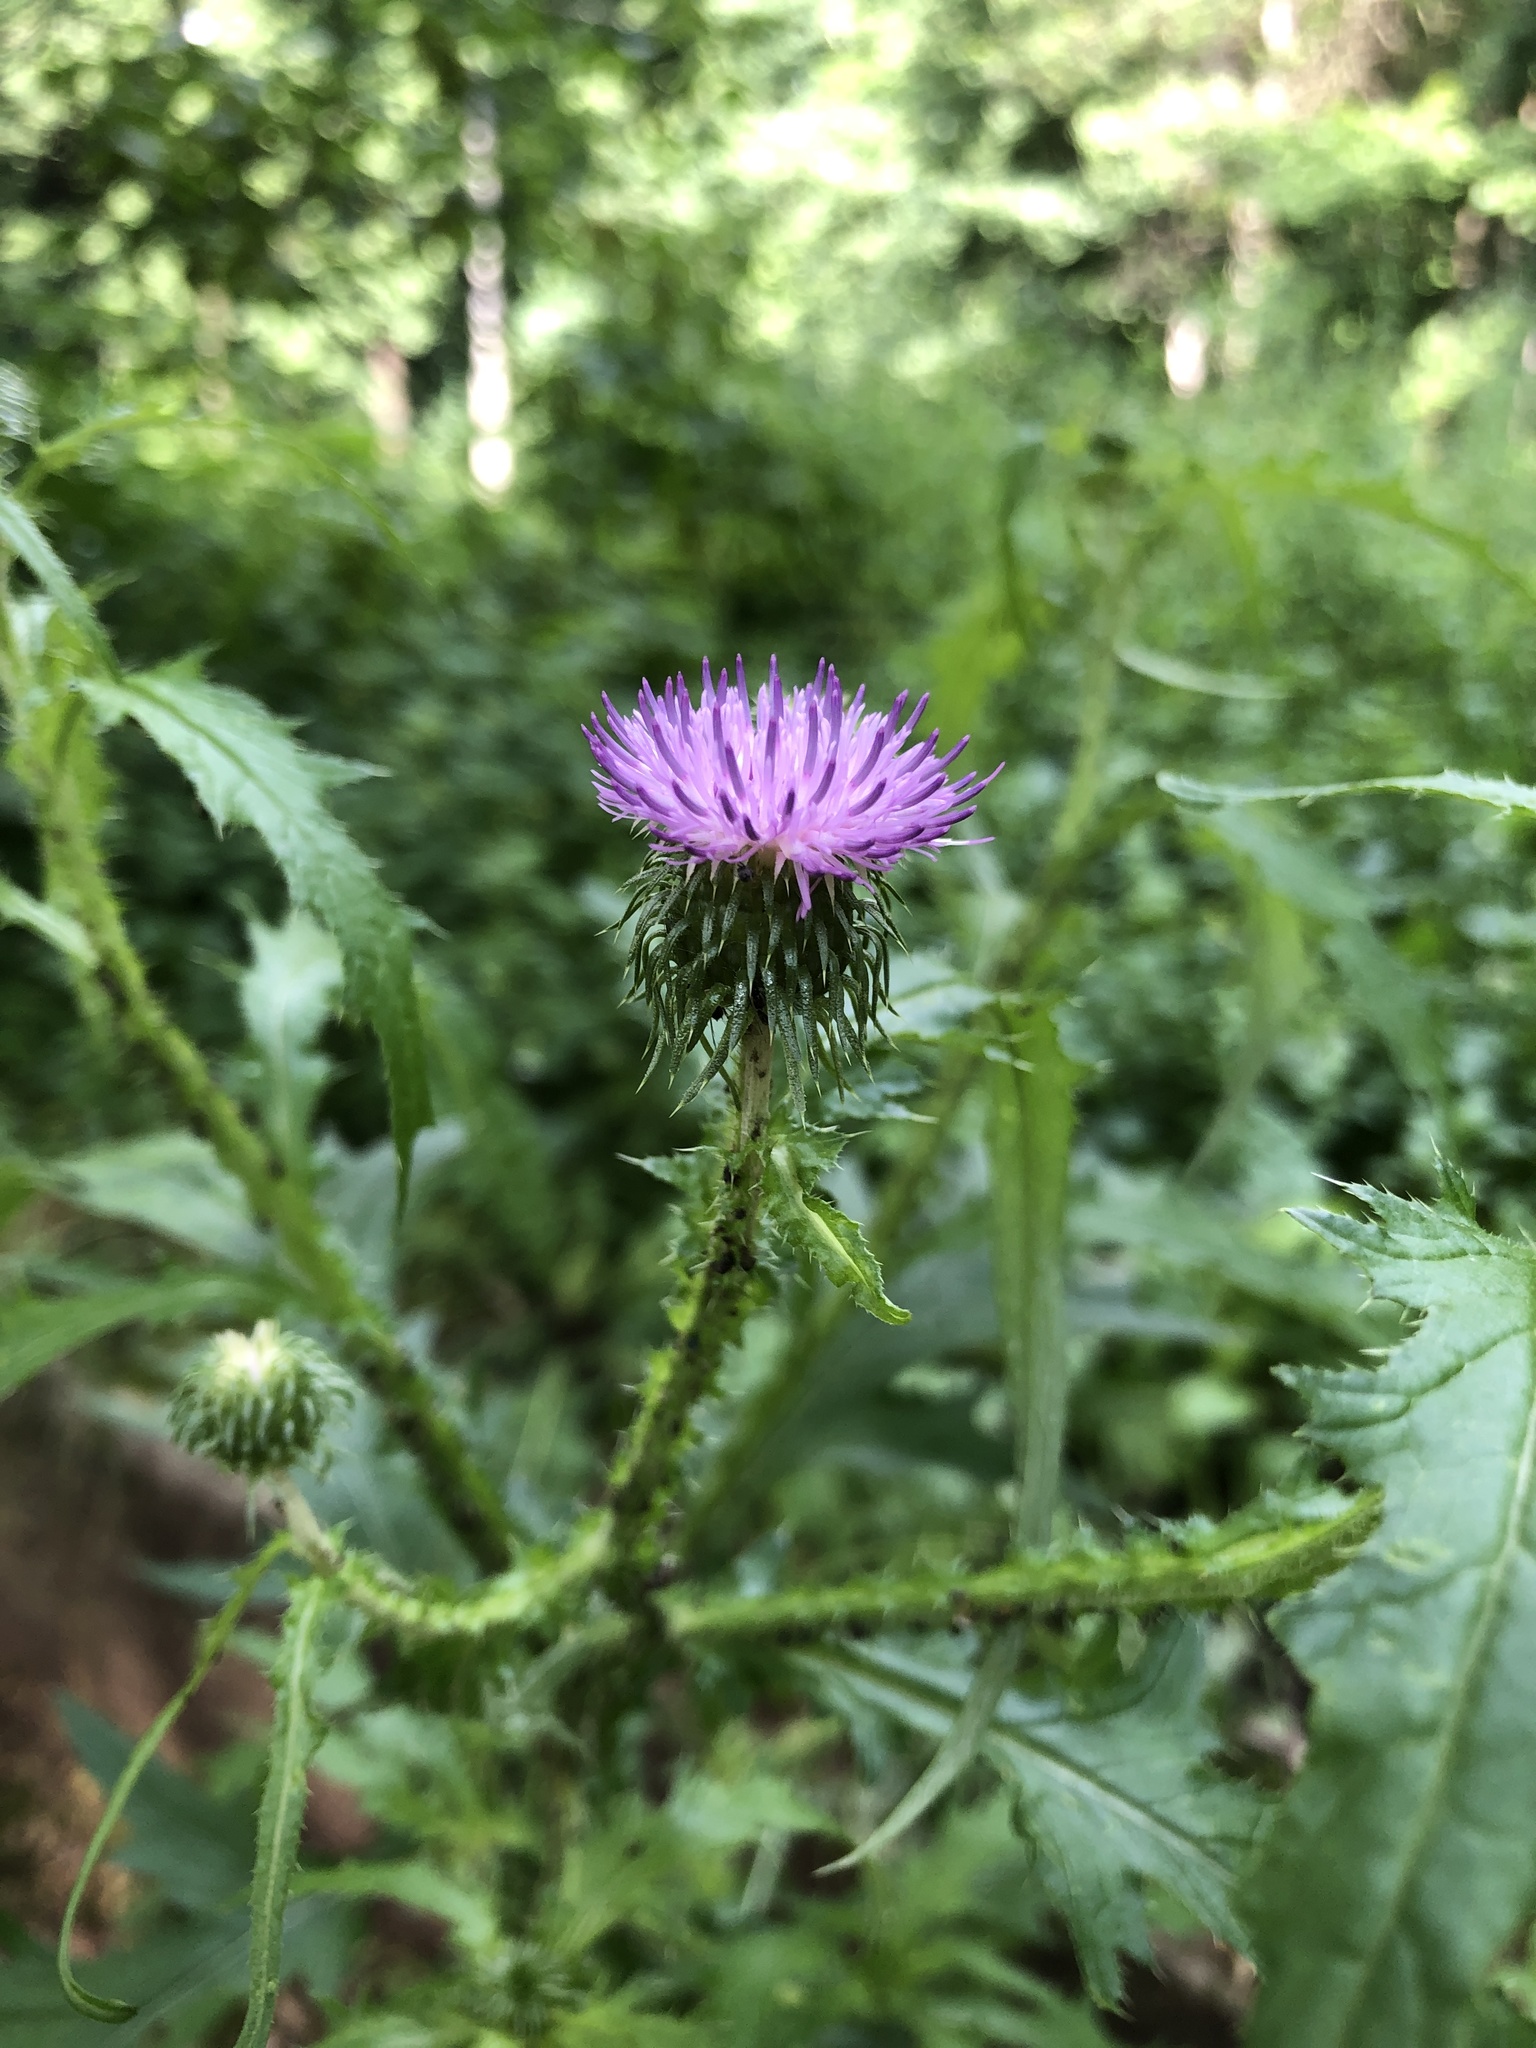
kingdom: Plantae
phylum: Tracheophyta
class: Magnoliopsida
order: Asterales
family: Asteraceae
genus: Carduus
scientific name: Carduus crispus
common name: Welted thistle
